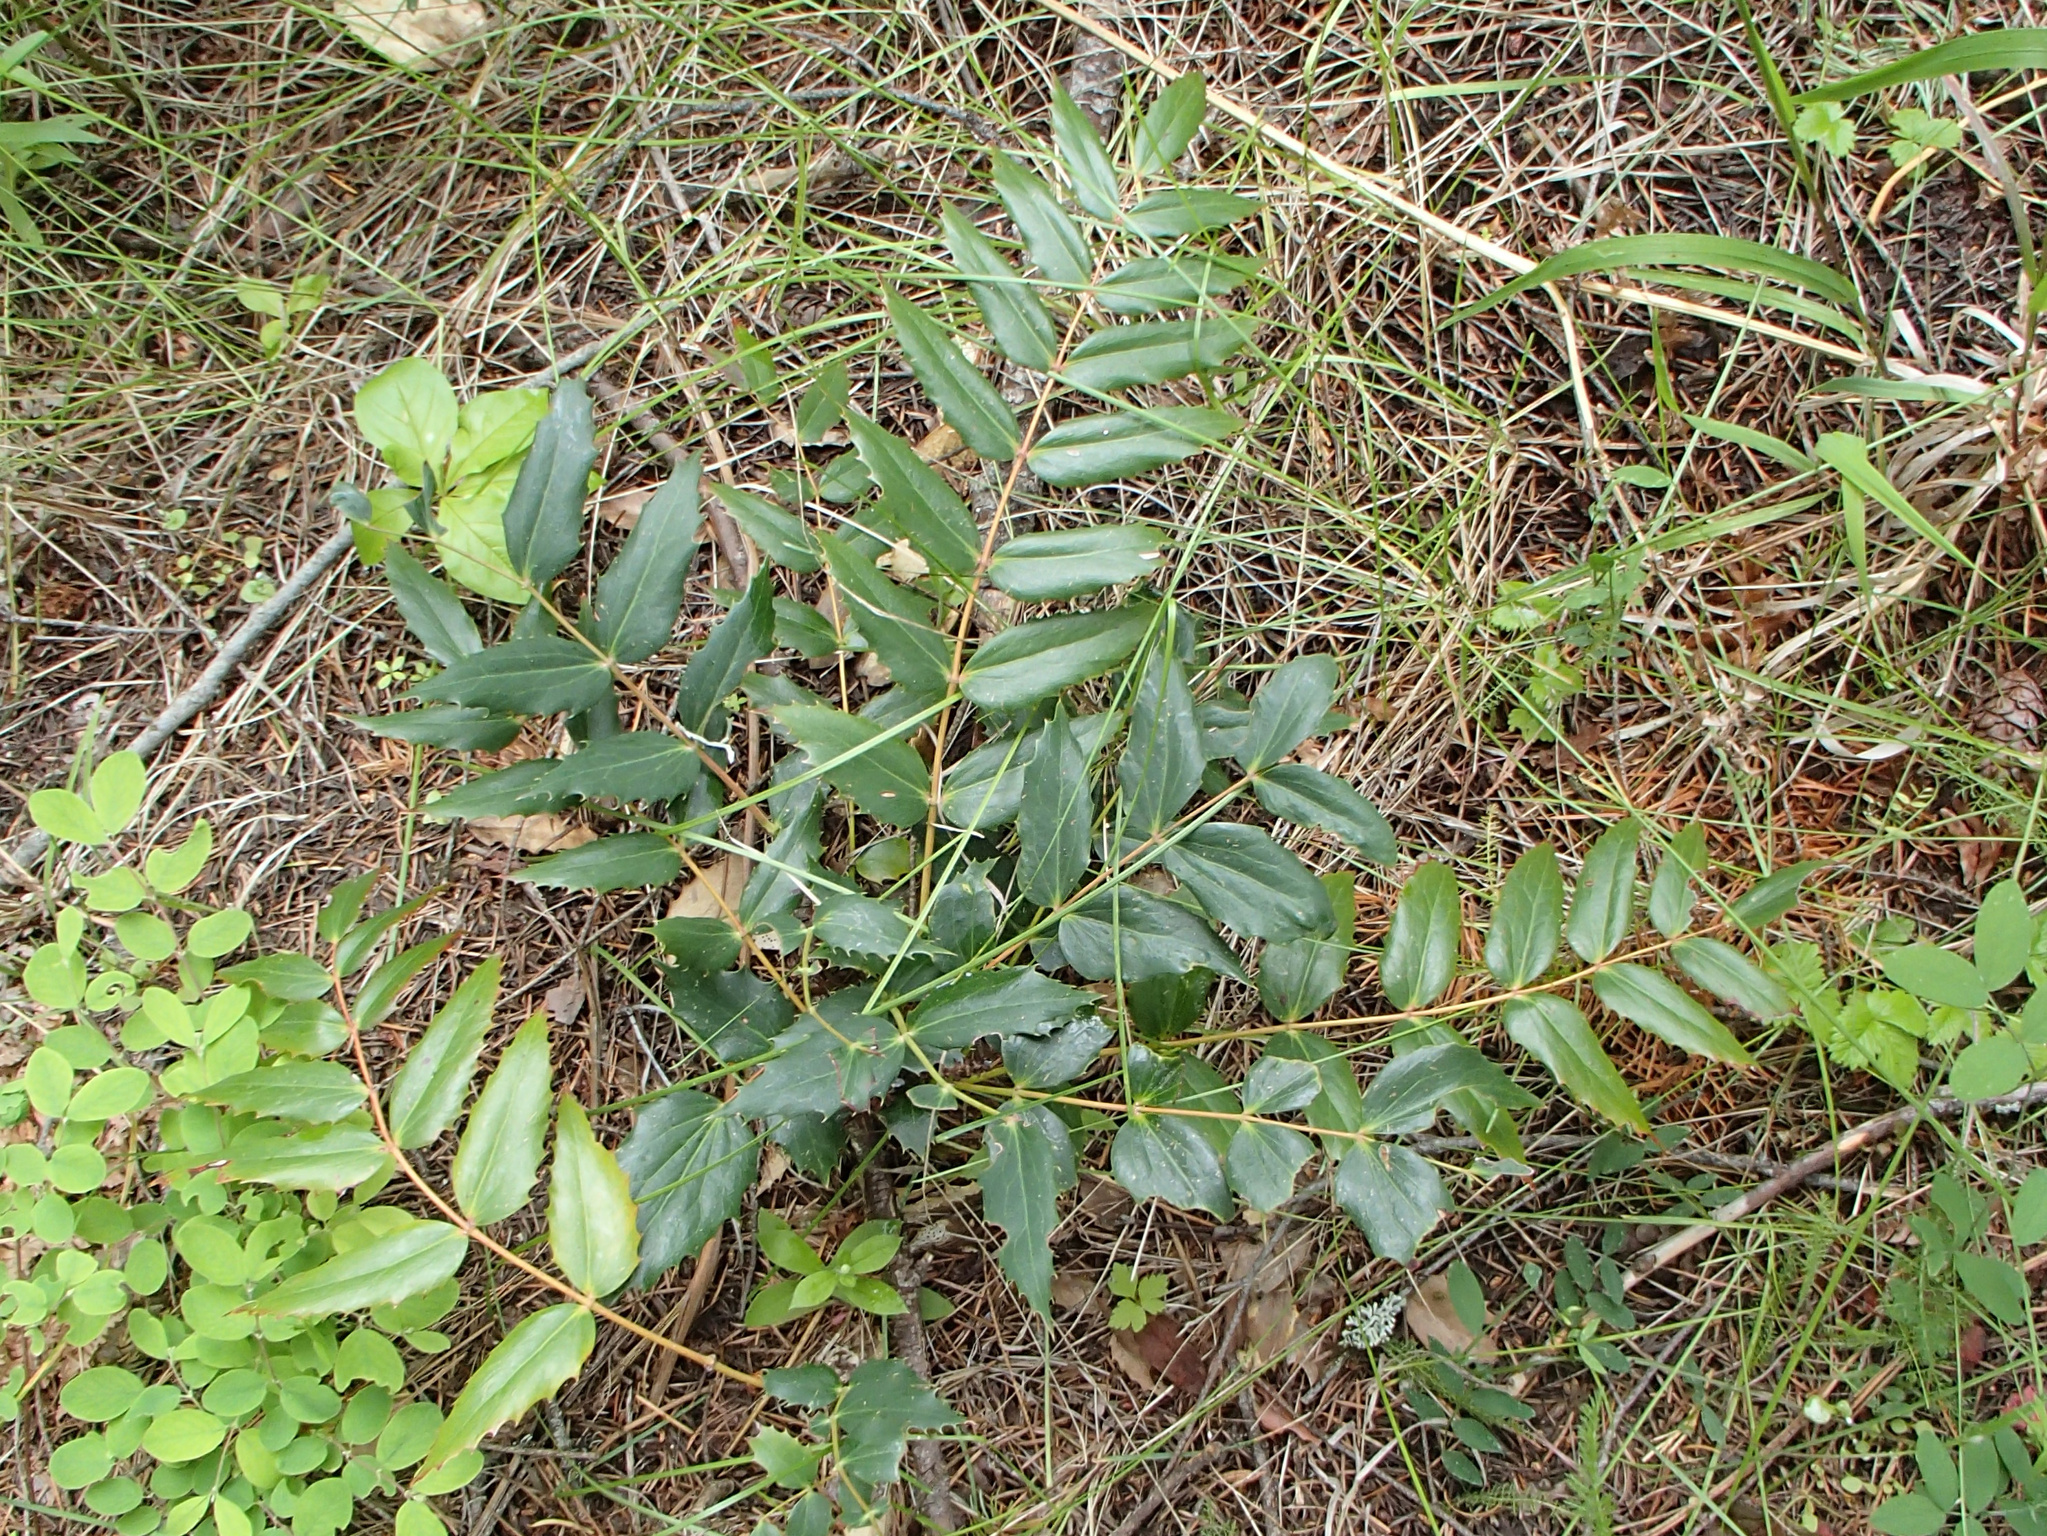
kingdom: Plantae
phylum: Tracheophyta
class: Magnoliopsida
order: Ranunculales
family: Berberidaceae
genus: Mahonia
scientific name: Mahonia nervosa
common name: Cascade oregon-grape
